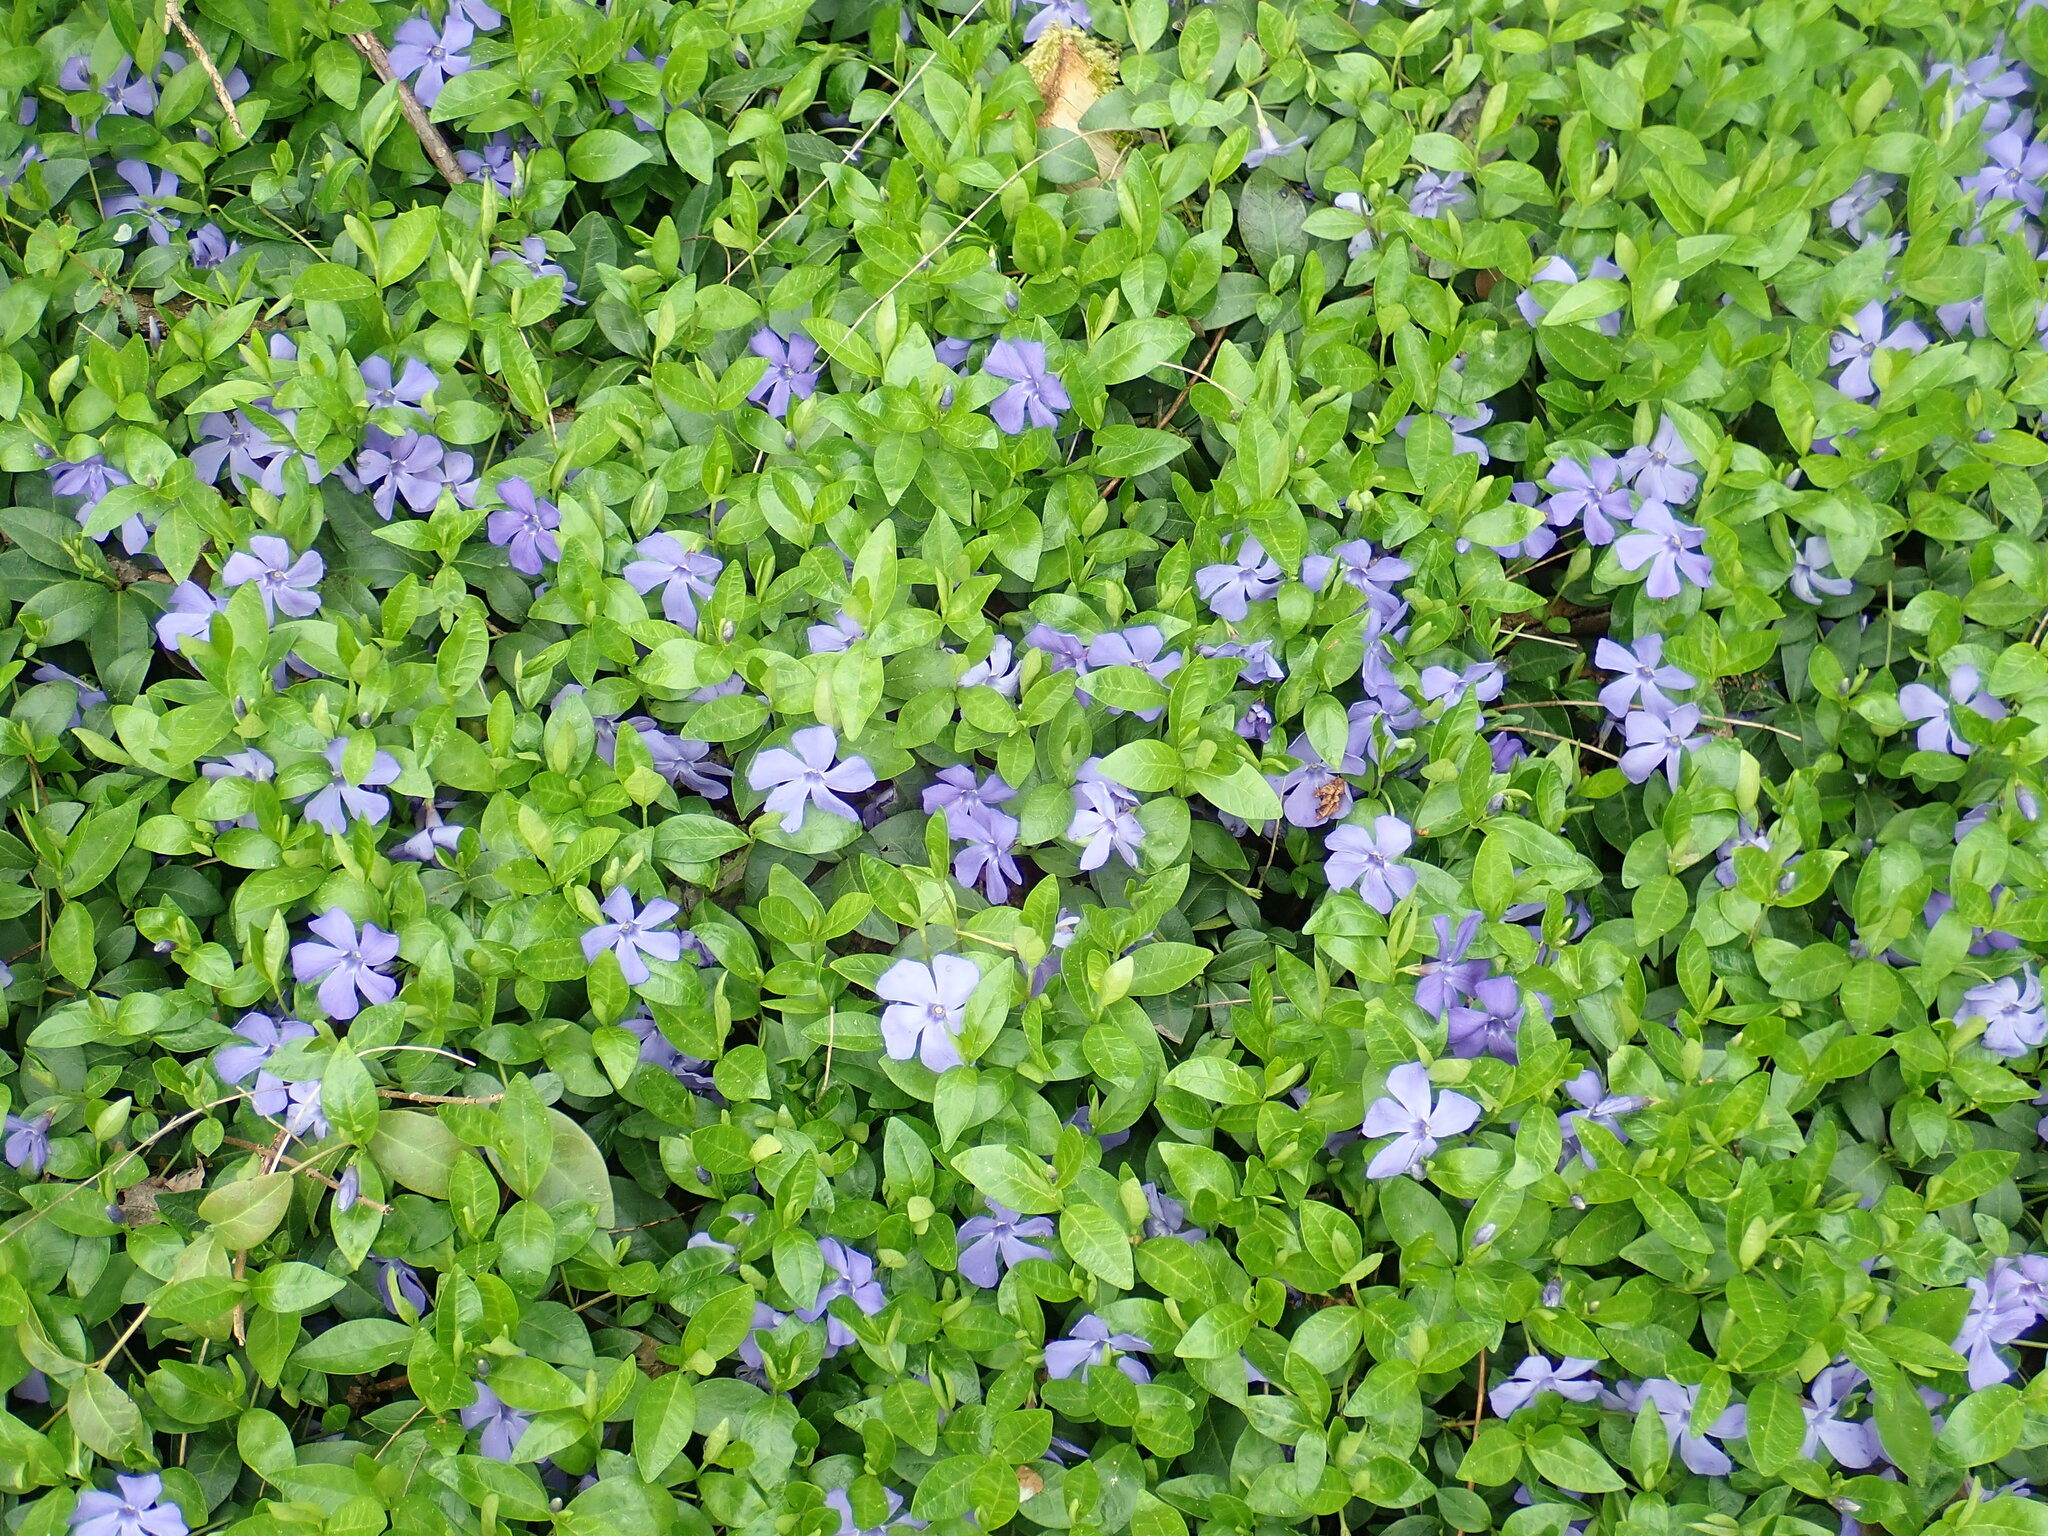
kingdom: Plantae
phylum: Tracheophyta
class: Magnoliopsida
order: Gentianales
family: Apocynaceae
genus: Vinca
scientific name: Vinca minor
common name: Lesser periwinkle
